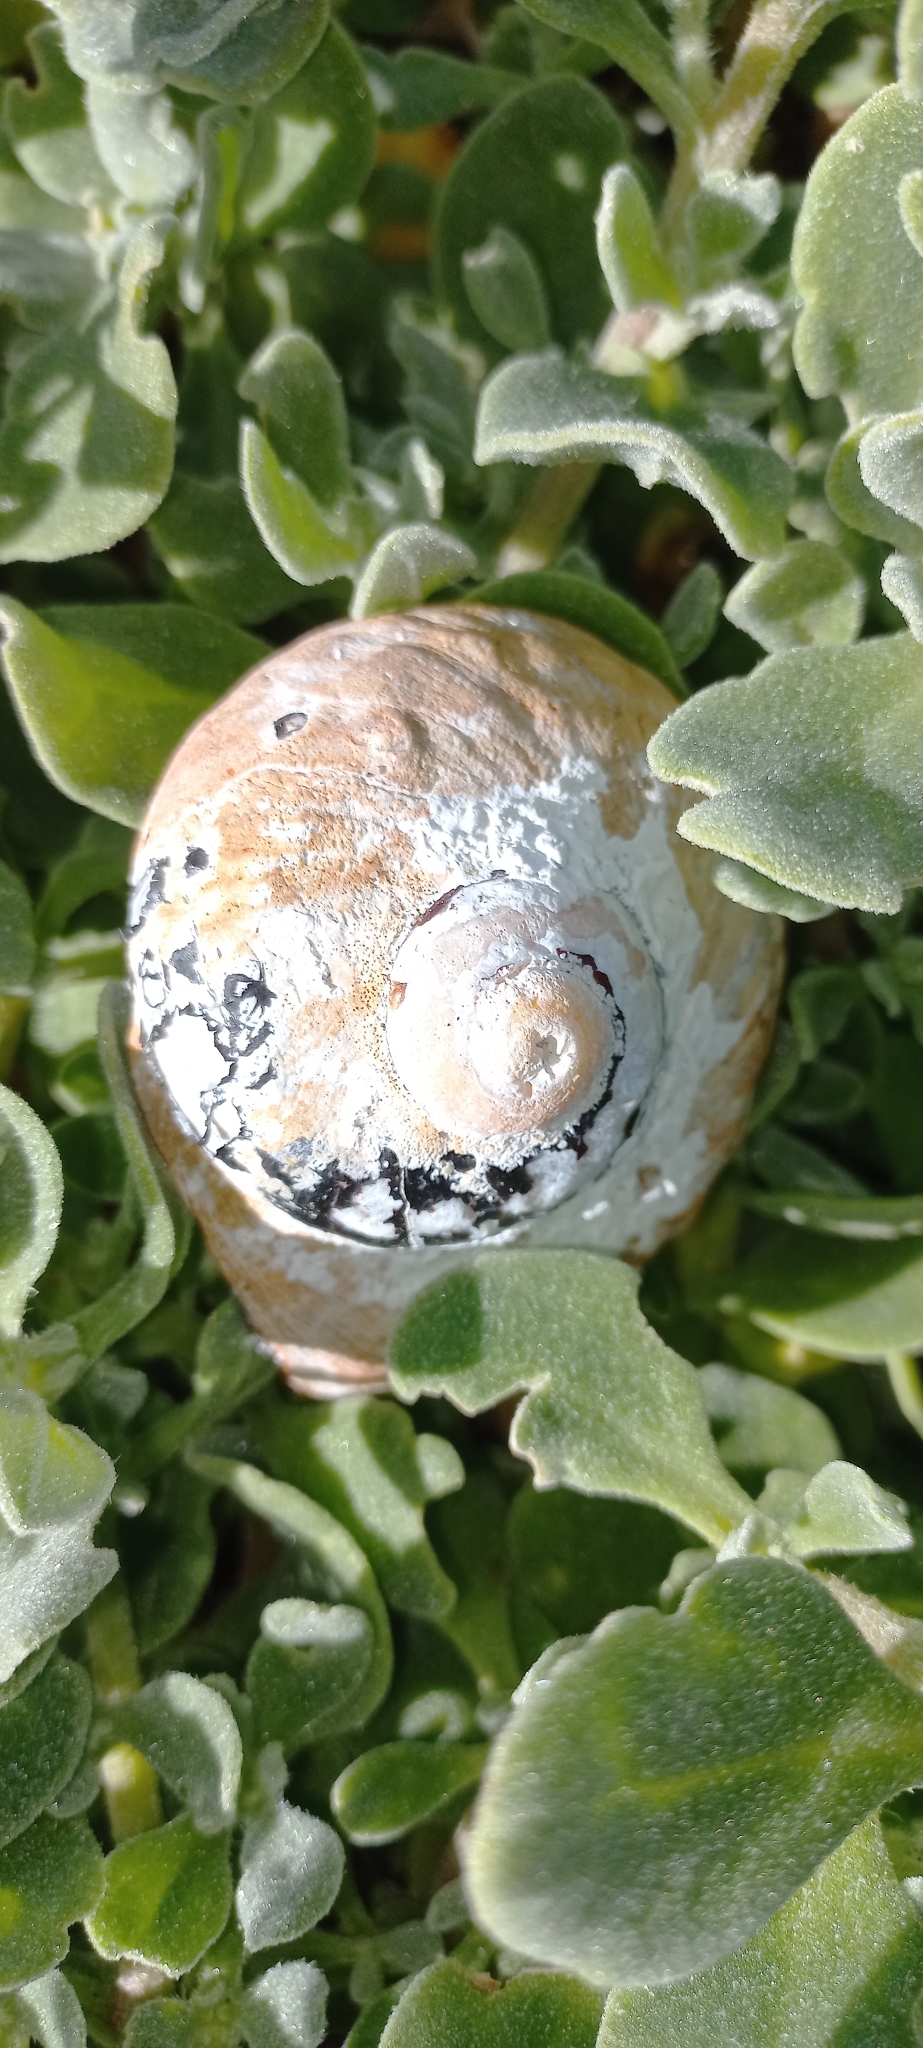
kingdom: Animalia
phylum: Mollusca
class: Gastropoda
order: Trochida
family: Turbinidae
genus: Turbo
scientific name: Turbo sarmaticus
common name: South african turban
